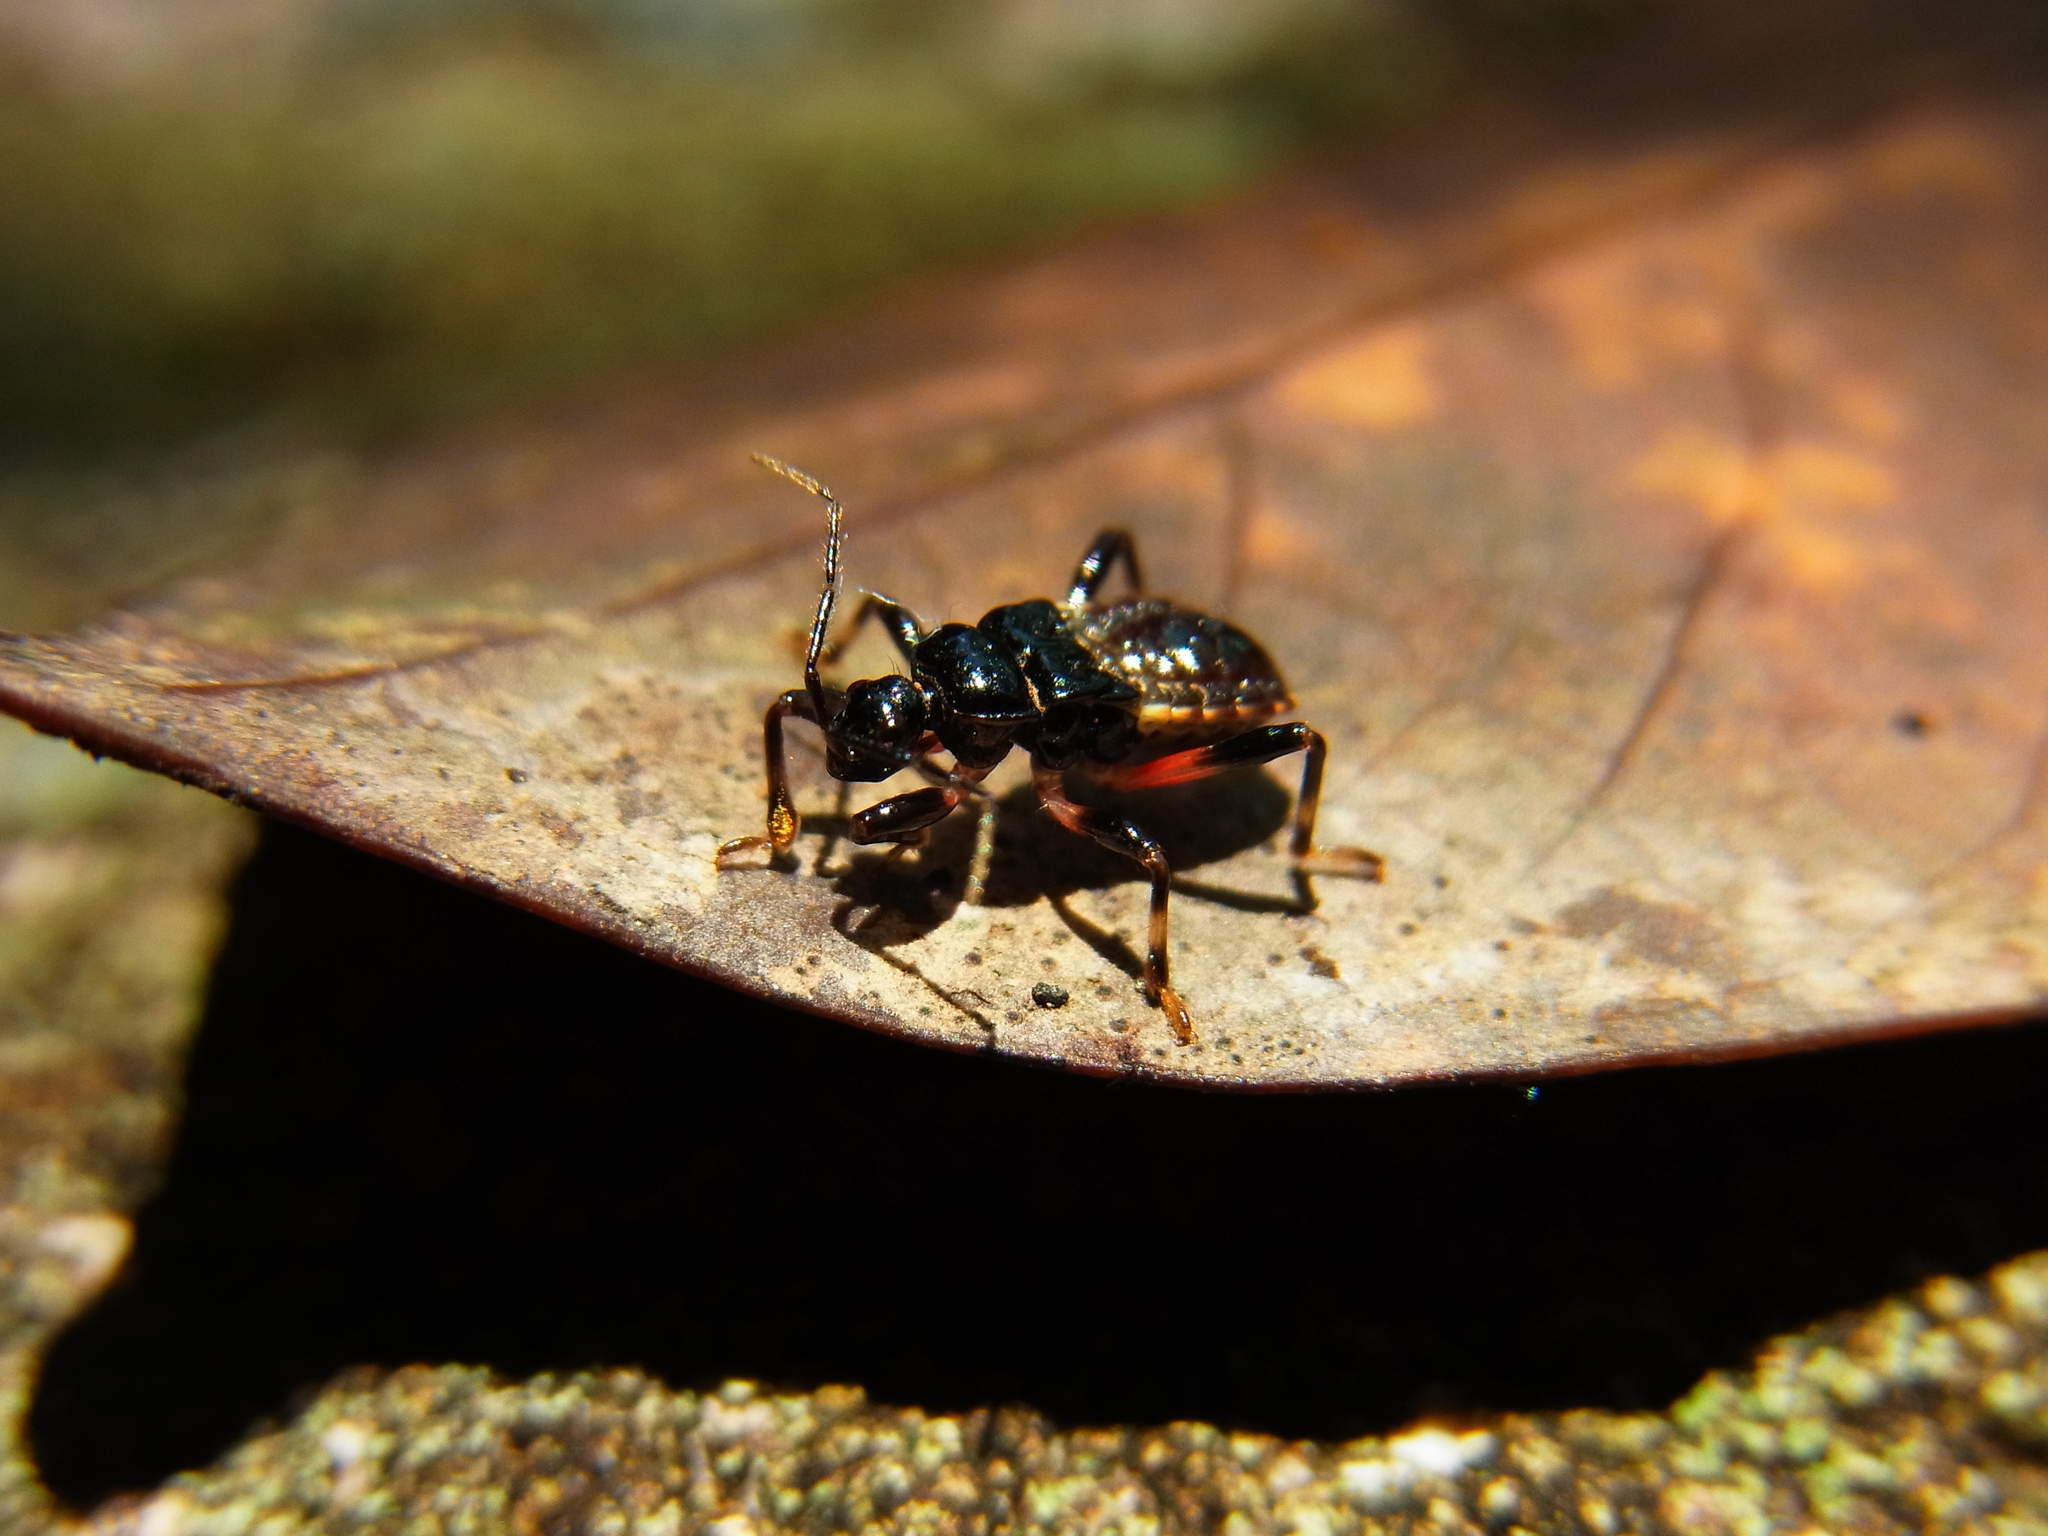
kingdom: Animalia
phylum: Arthropoda
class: Insecta
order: Hemiptera
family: Reduviidae
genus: Ectrychotes
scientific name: Ectrychotes andreae
